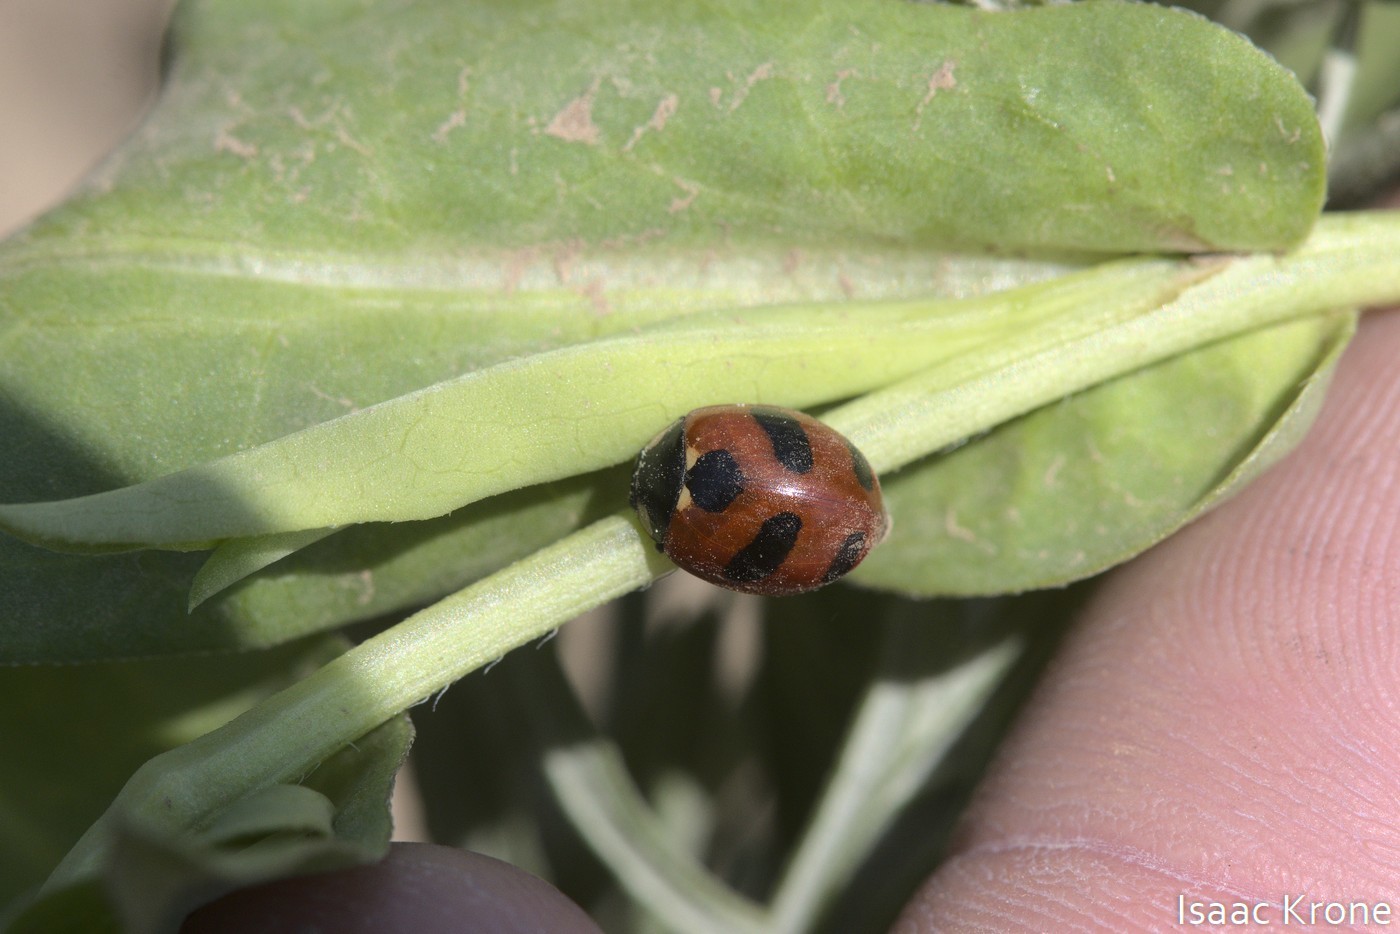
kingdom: Animalia
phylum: Arthropoda
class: Insecta
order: Coleoptera
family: Coccinellidae
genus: Coccinella
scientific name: Coccinella monticola
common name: Mountain lady beetle
